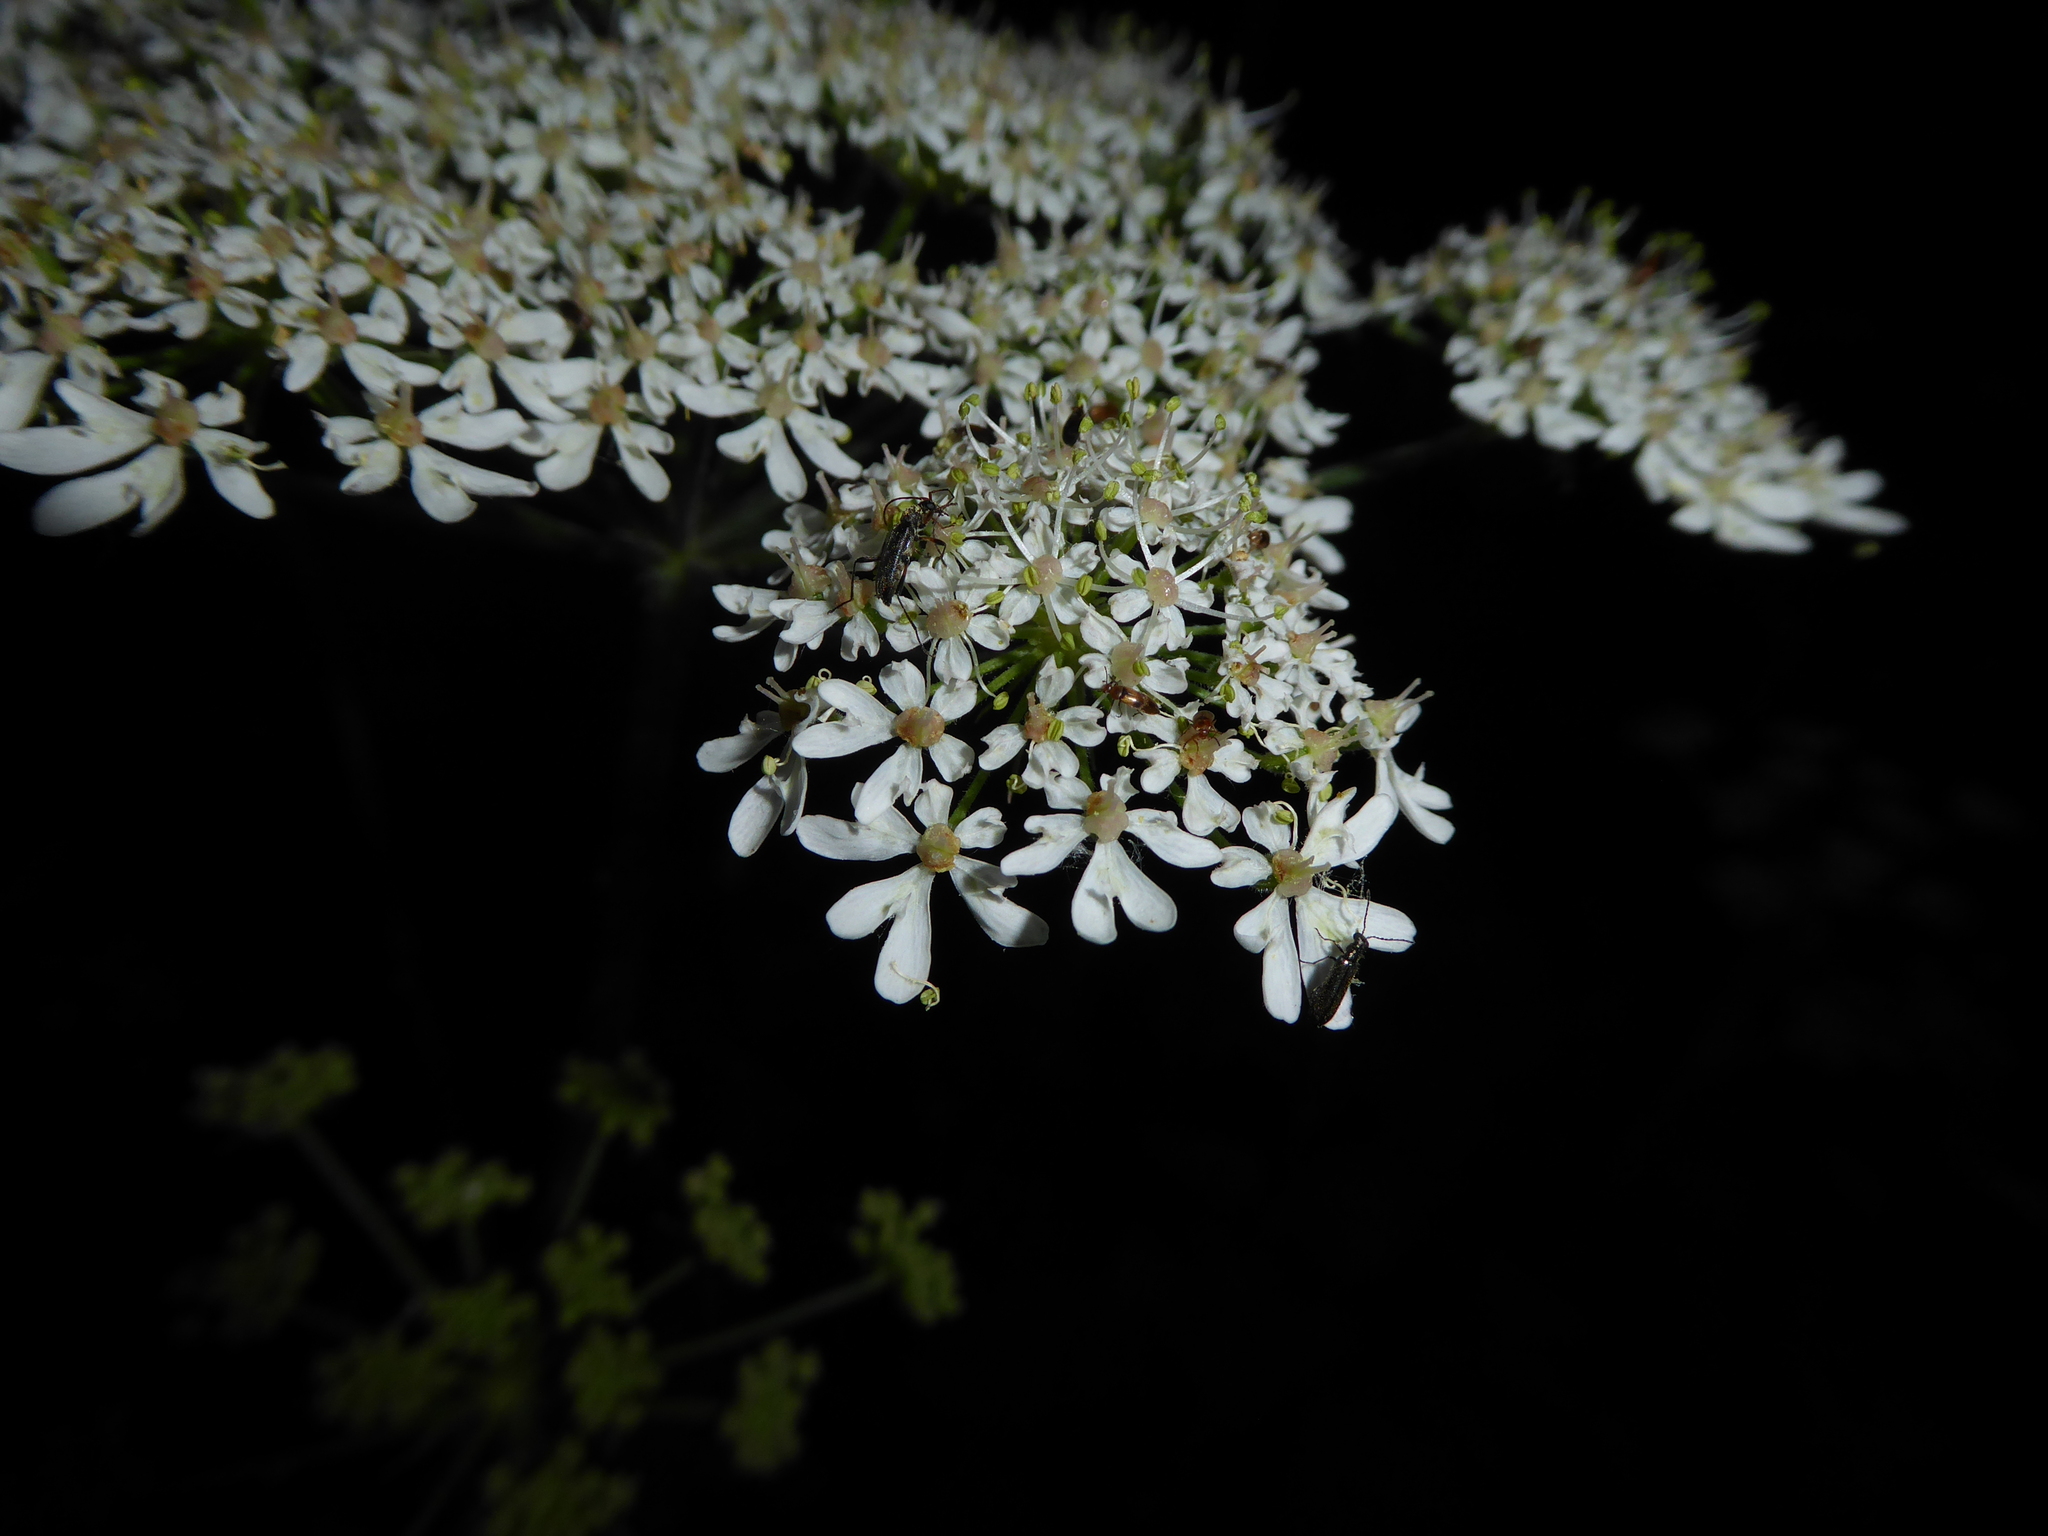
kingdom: Animalia
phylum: Arthropoda
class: Insecta
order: Coleoptera
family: Cerambycidae
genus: Grammoptera
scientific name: Grammoptera ruficornis
